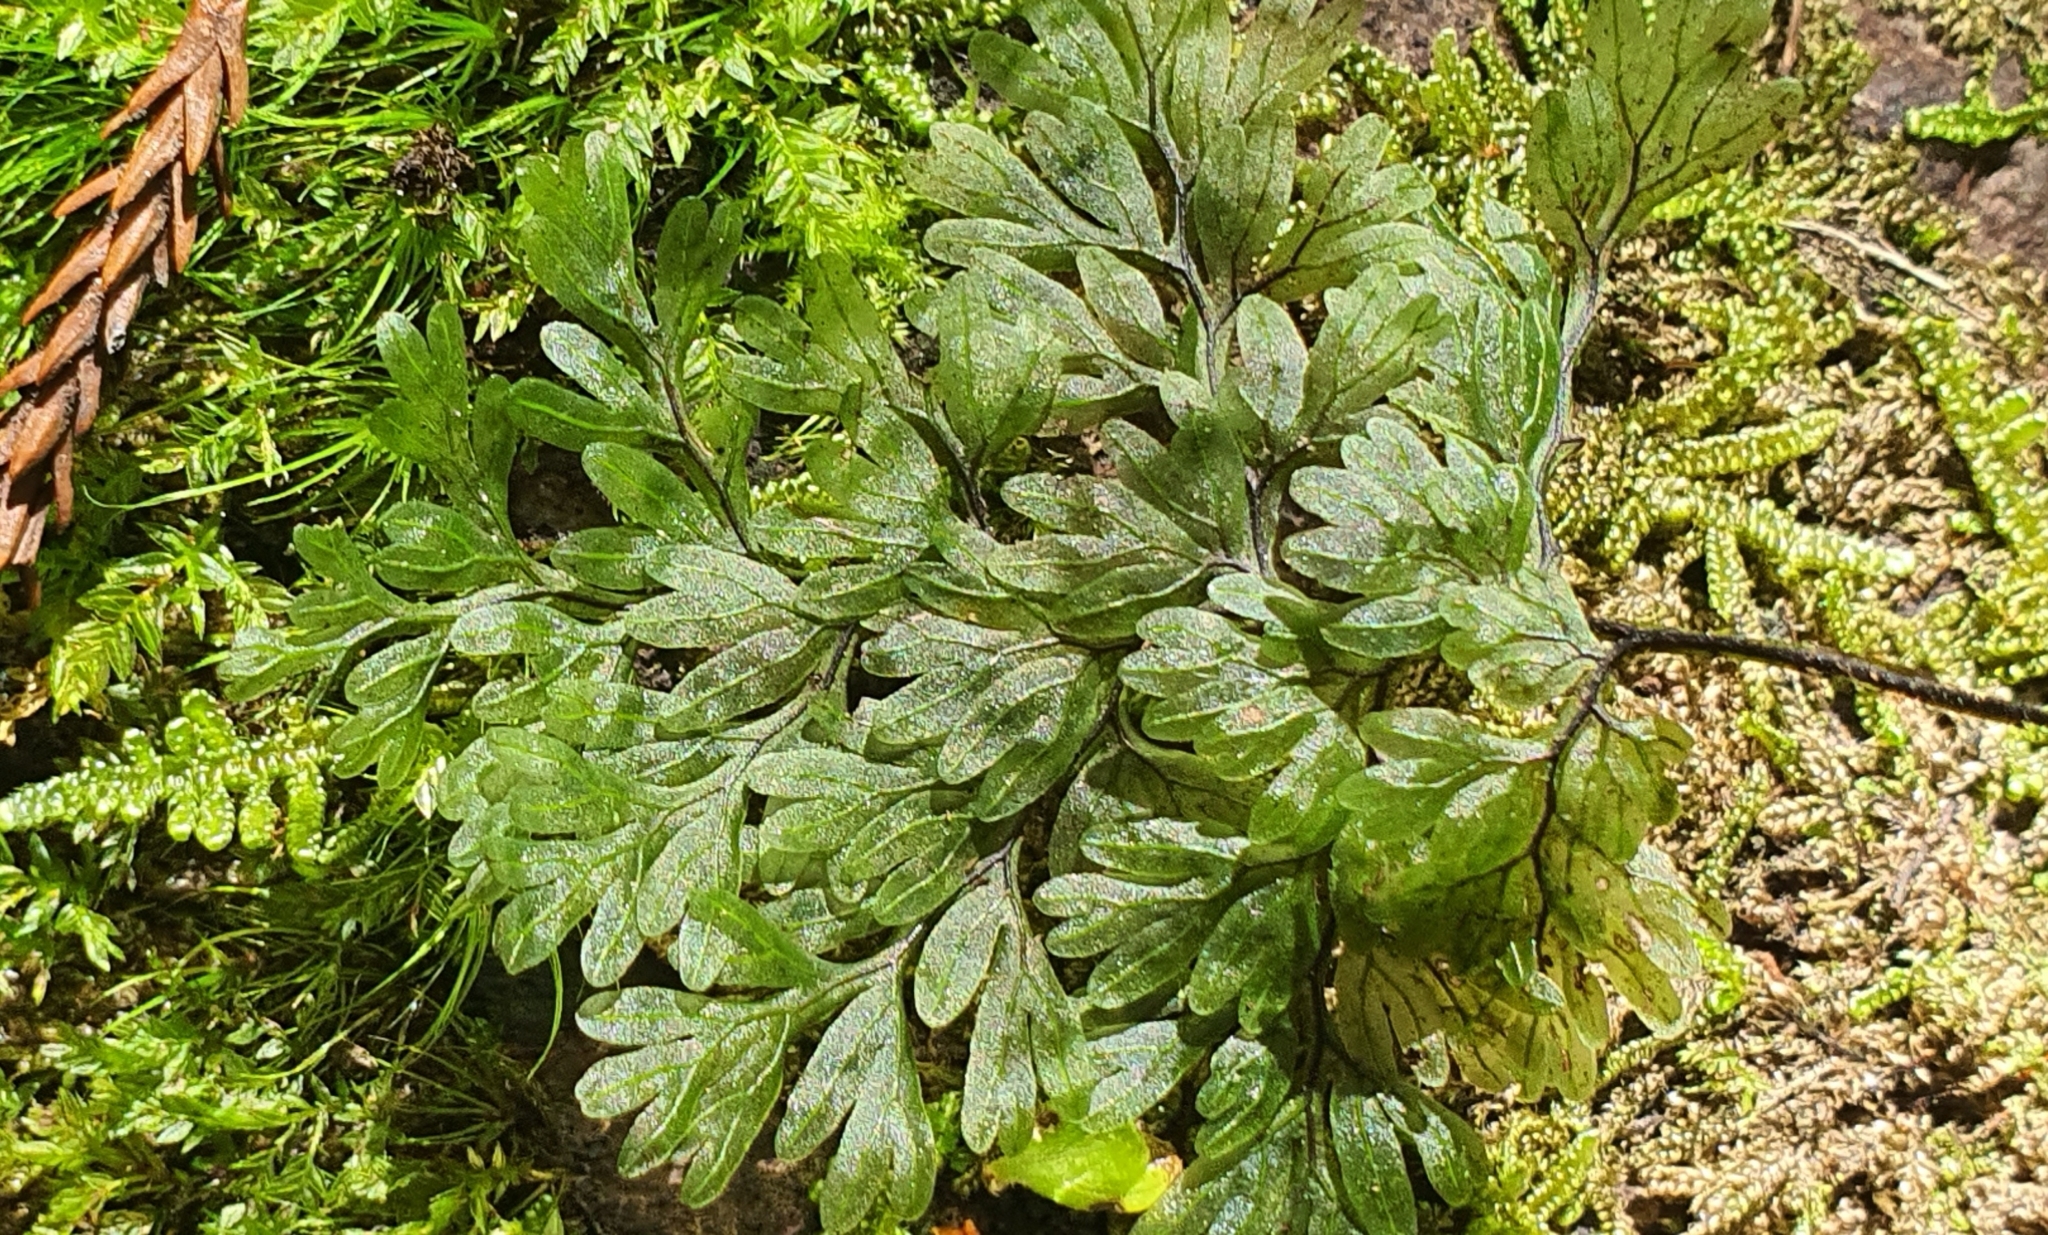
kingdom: Plantae
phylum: Tracheophyta
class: Polypodiopsida
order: Hymenophyllales
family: Hymenophyllaceae
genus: Hymenophyllum
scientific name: Hymenophyllum sanguinolentum
